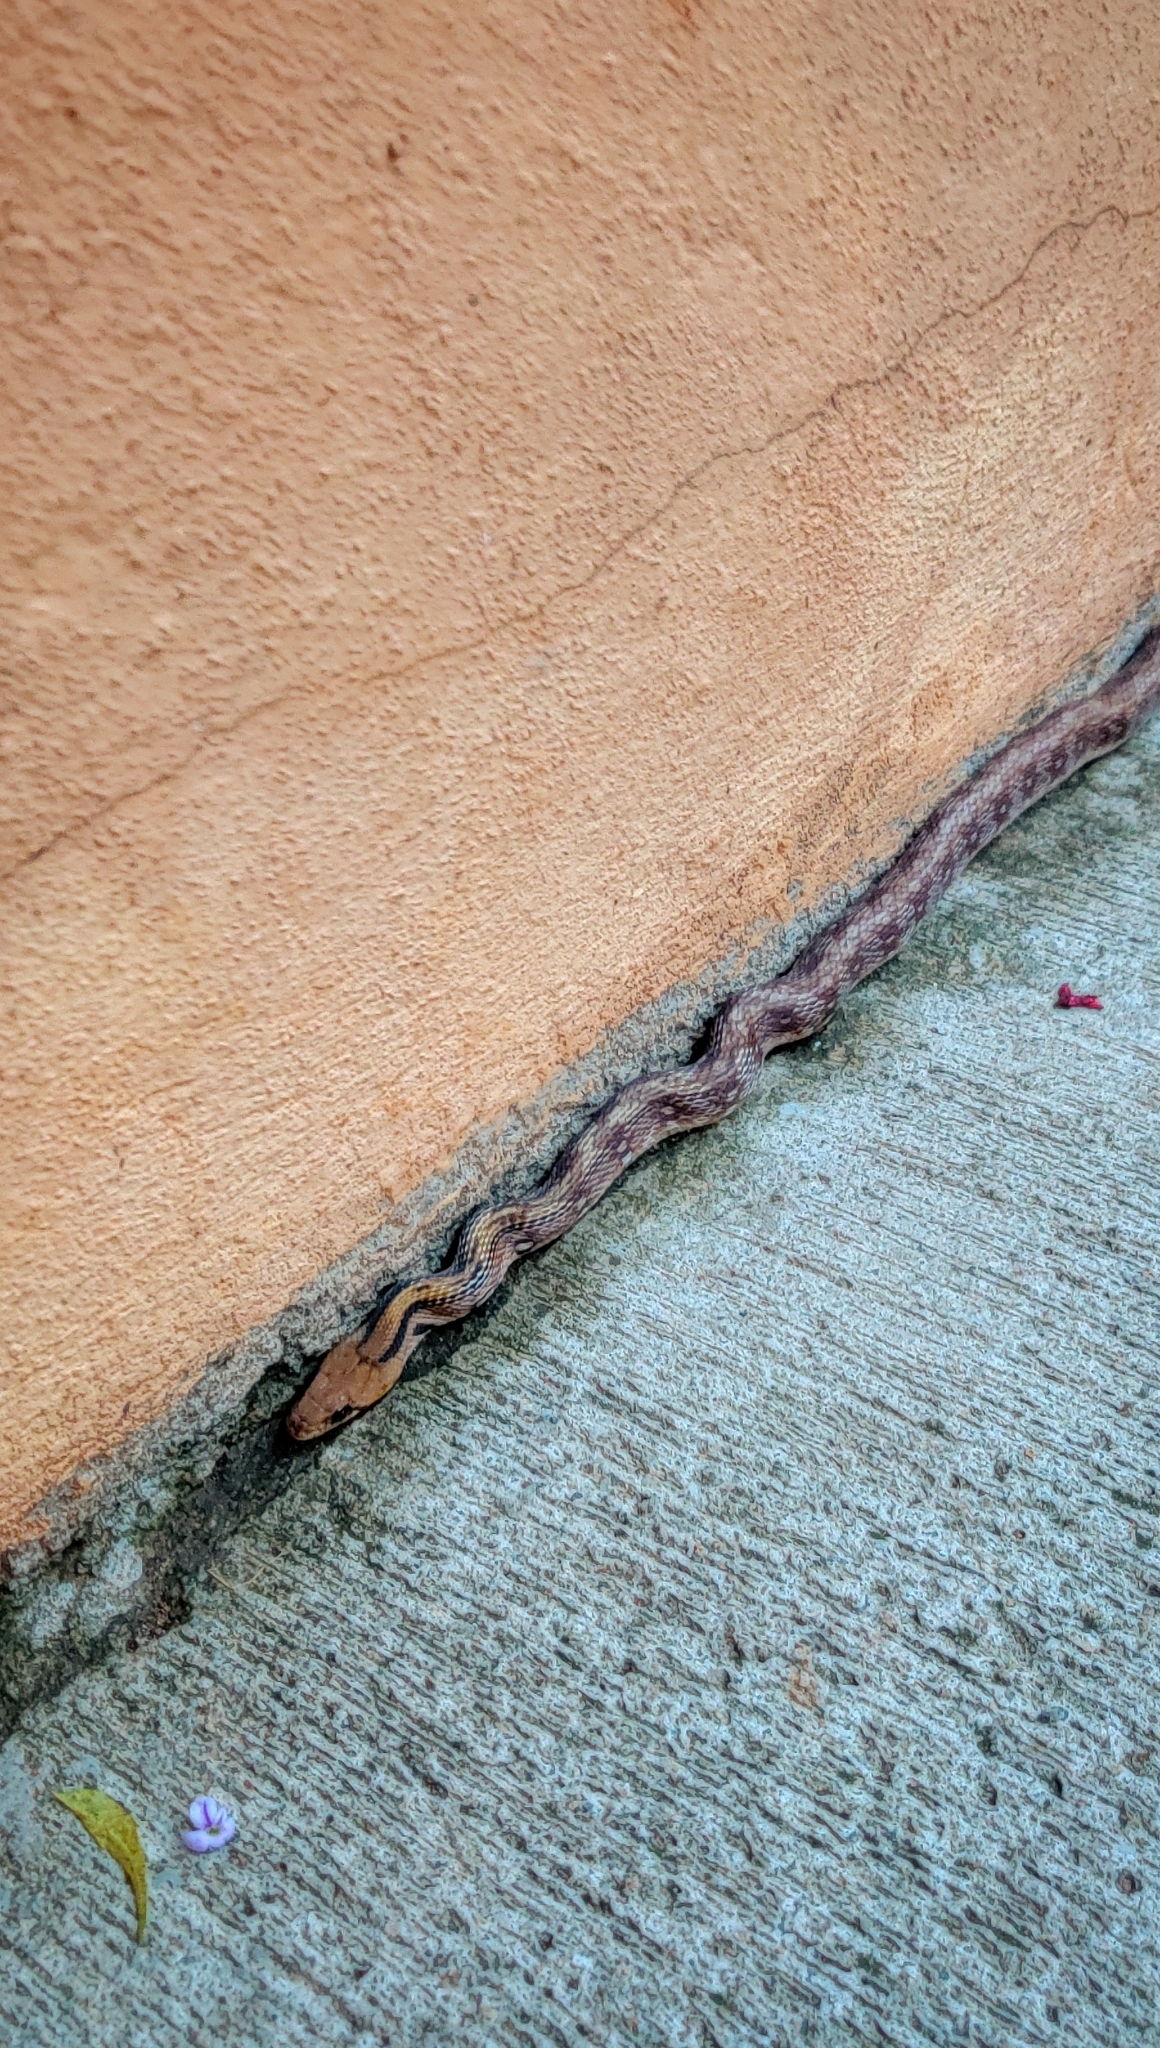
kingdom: Animalia
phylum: Chordata
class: Squamata
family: Colubridae
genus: Coelognathus
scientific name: Coelognathus helena
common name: Trinket snake
